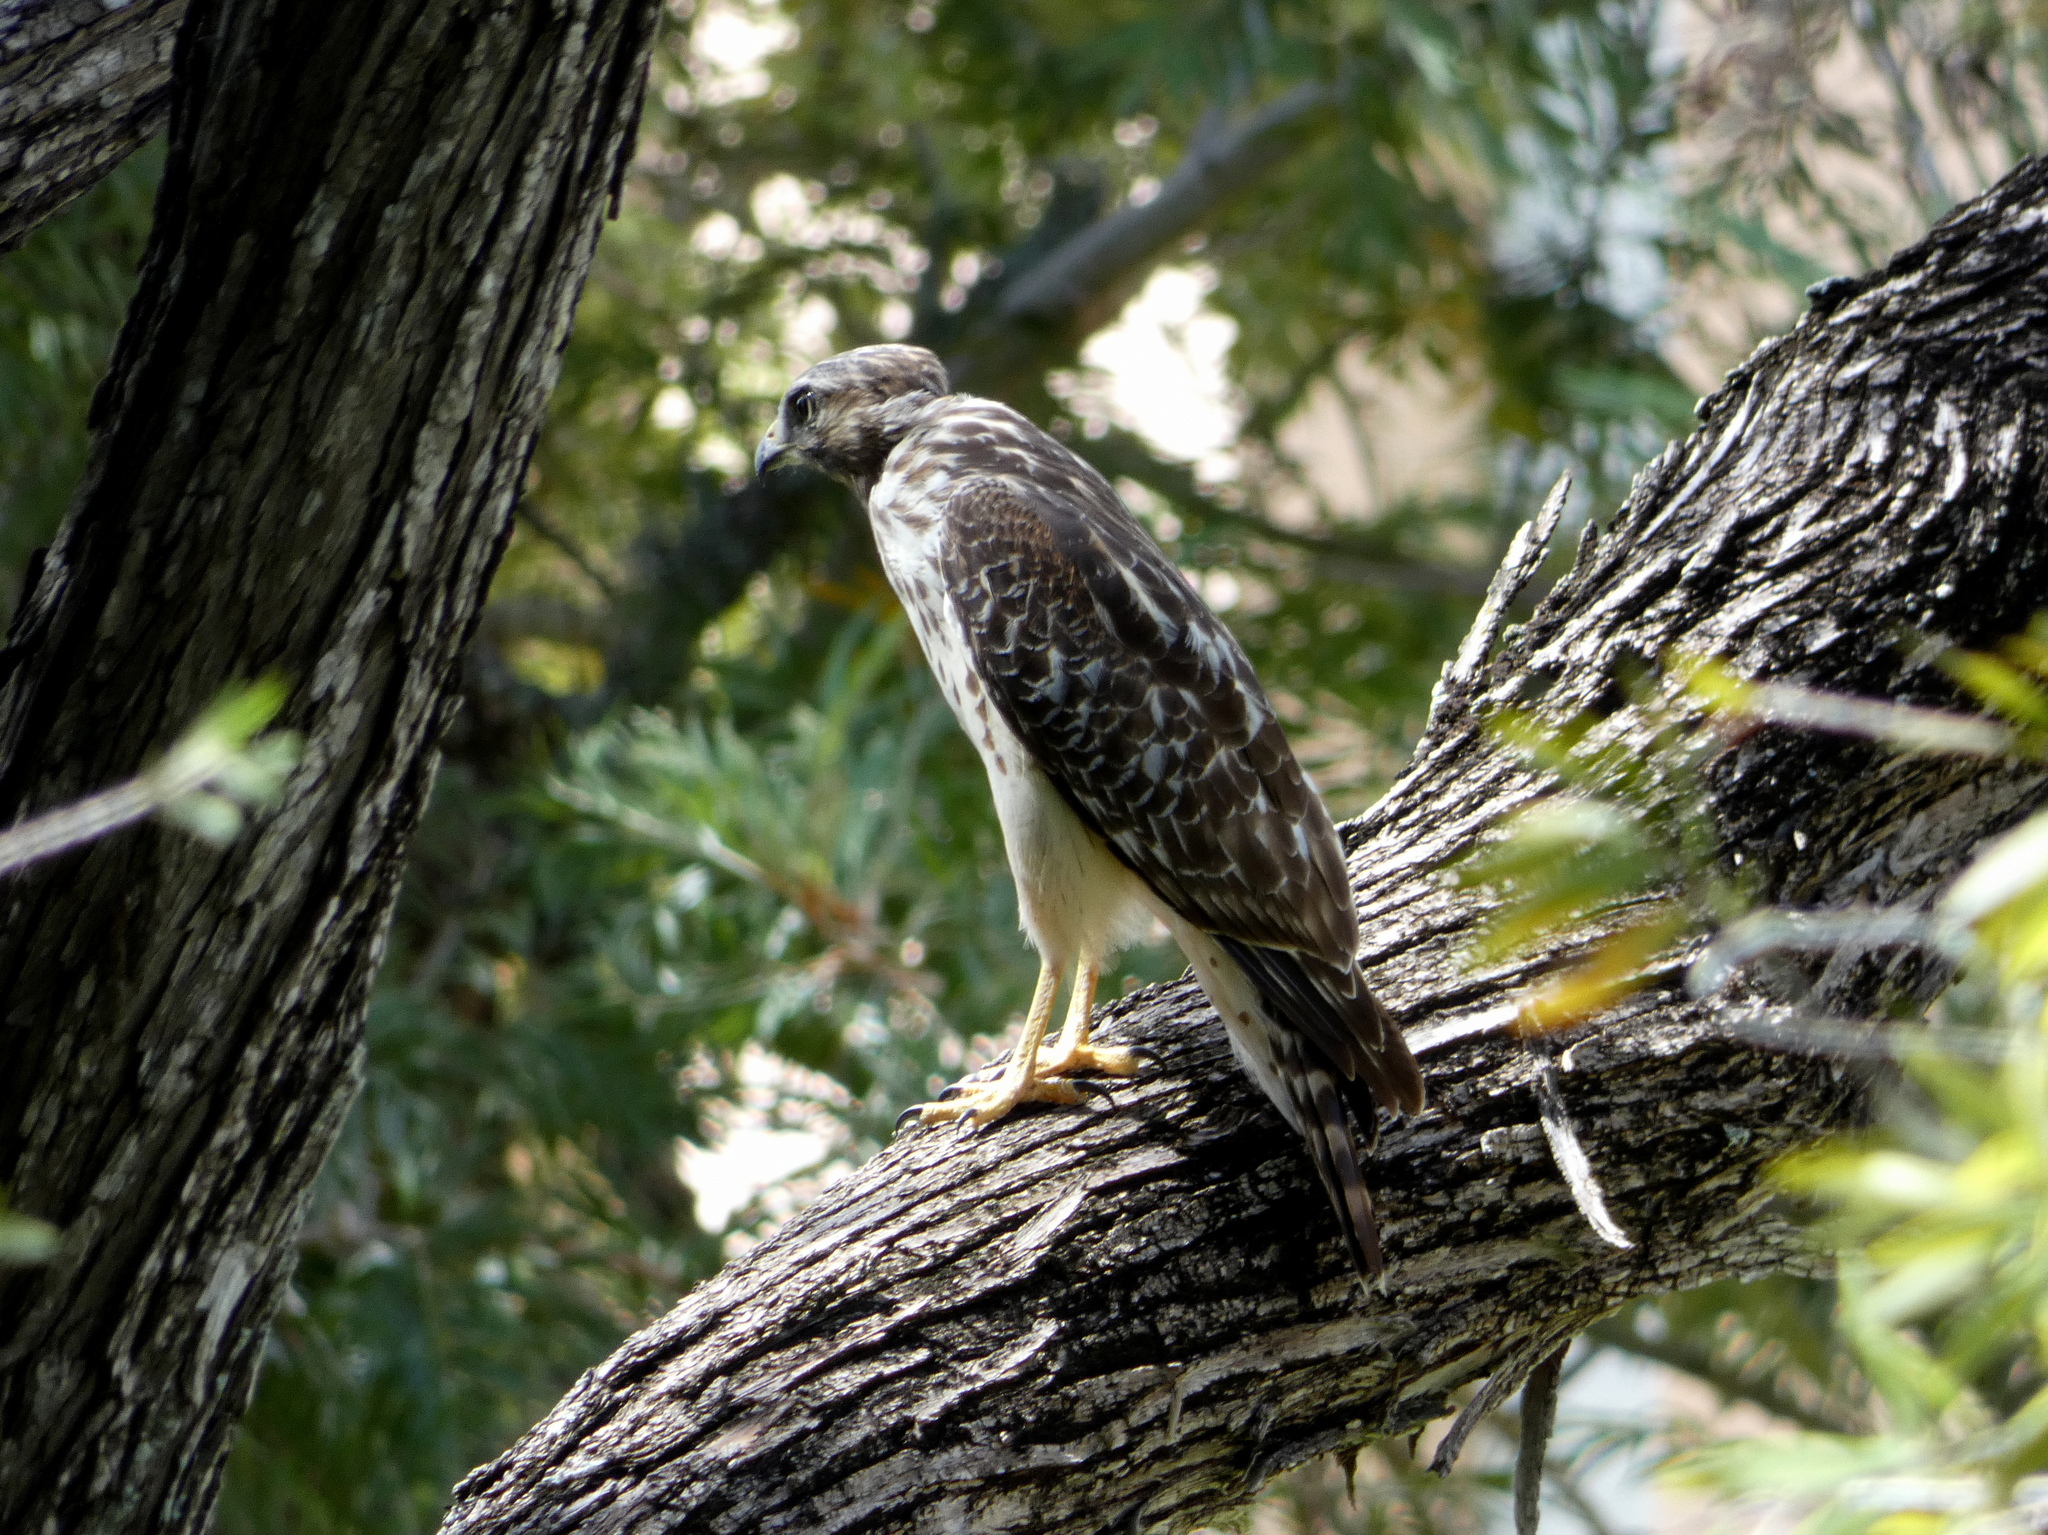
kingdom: Animalia
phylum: Chordata
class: Aves
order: Accipitriformes
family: Accipitridae
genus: Buteo
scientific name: Buteo lineatus
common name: Red-shouldered hawk
